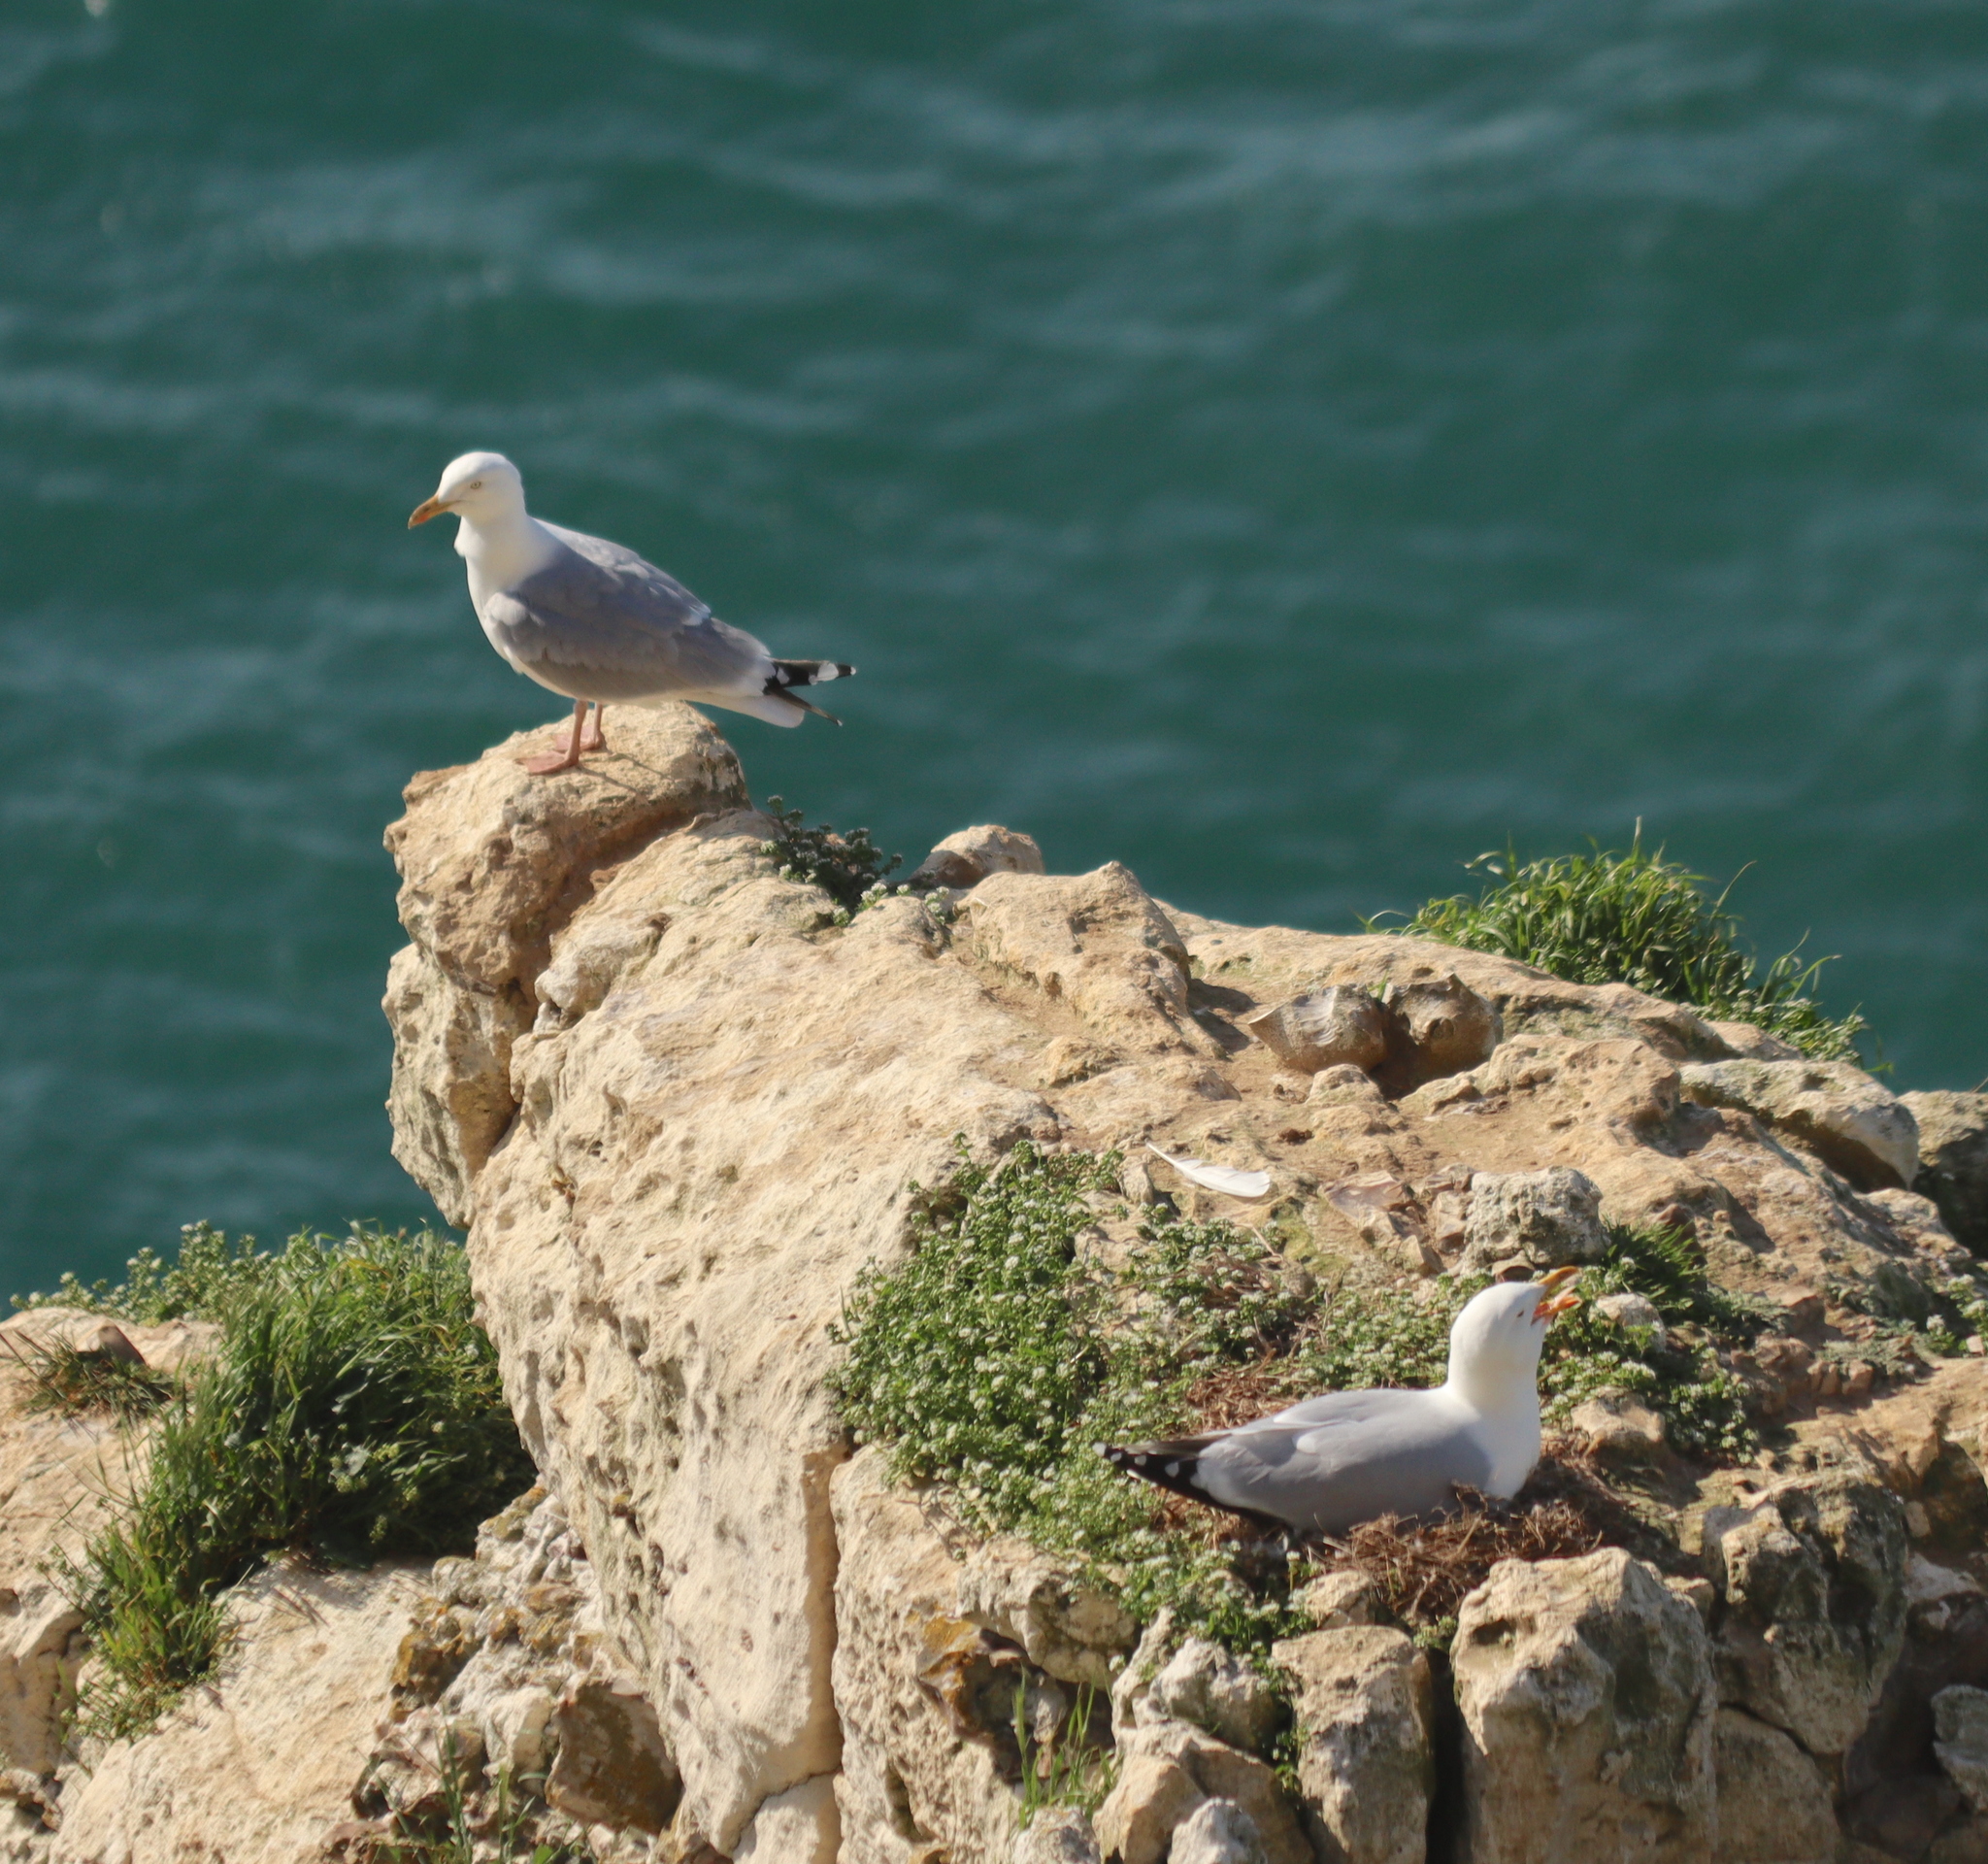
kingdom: Animalia
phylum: Chordata
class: Aves
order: Charadriiformes
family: Laridae
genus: Larus
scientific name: Larus argentatus
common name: Herring gull
